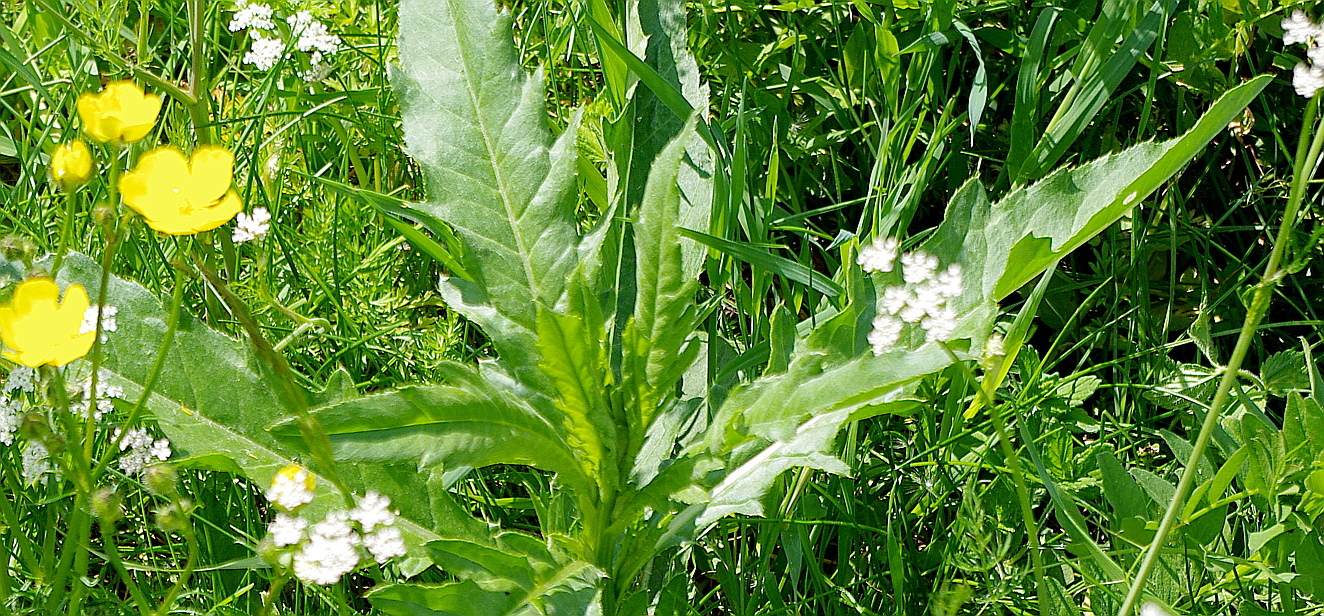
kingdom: Plantae
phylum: Tracheophyta
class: Magnoliopsida
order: Asterales
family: Asteraceae
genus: Cirsium
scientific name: Cirsium arvense
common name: Creeping thistle
